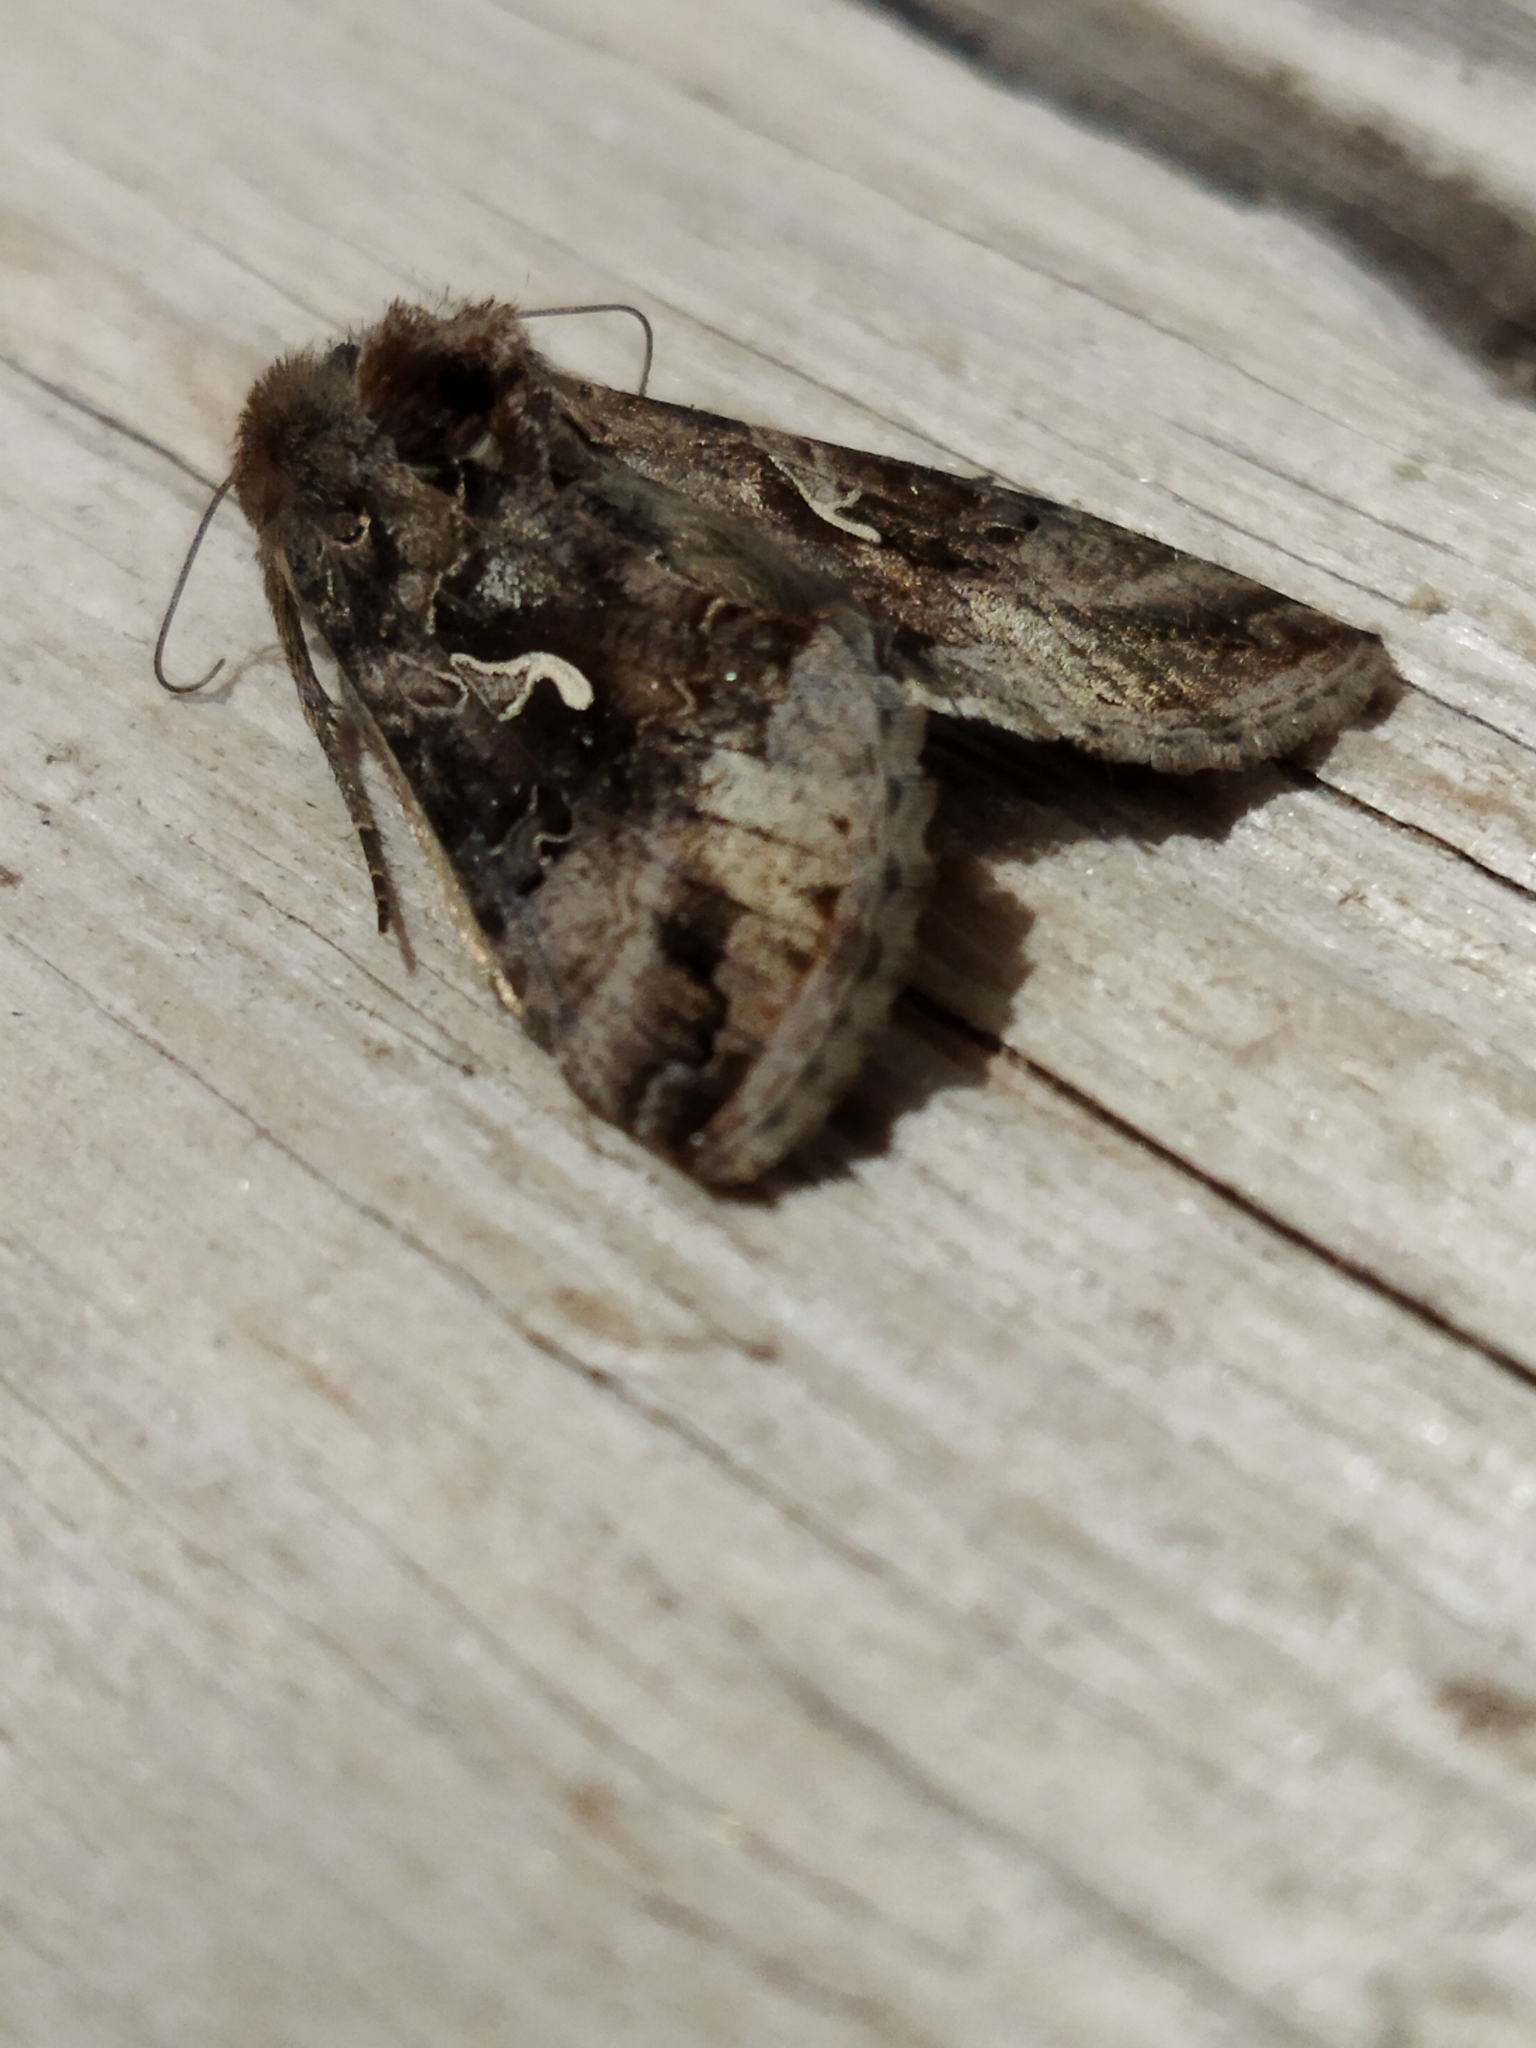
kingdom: Animalia
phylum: Arthropoda
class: Insecta
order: Lepidoptera
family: Noctuidae
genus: Autographa
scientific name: Autographa gamma
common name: Silver y
